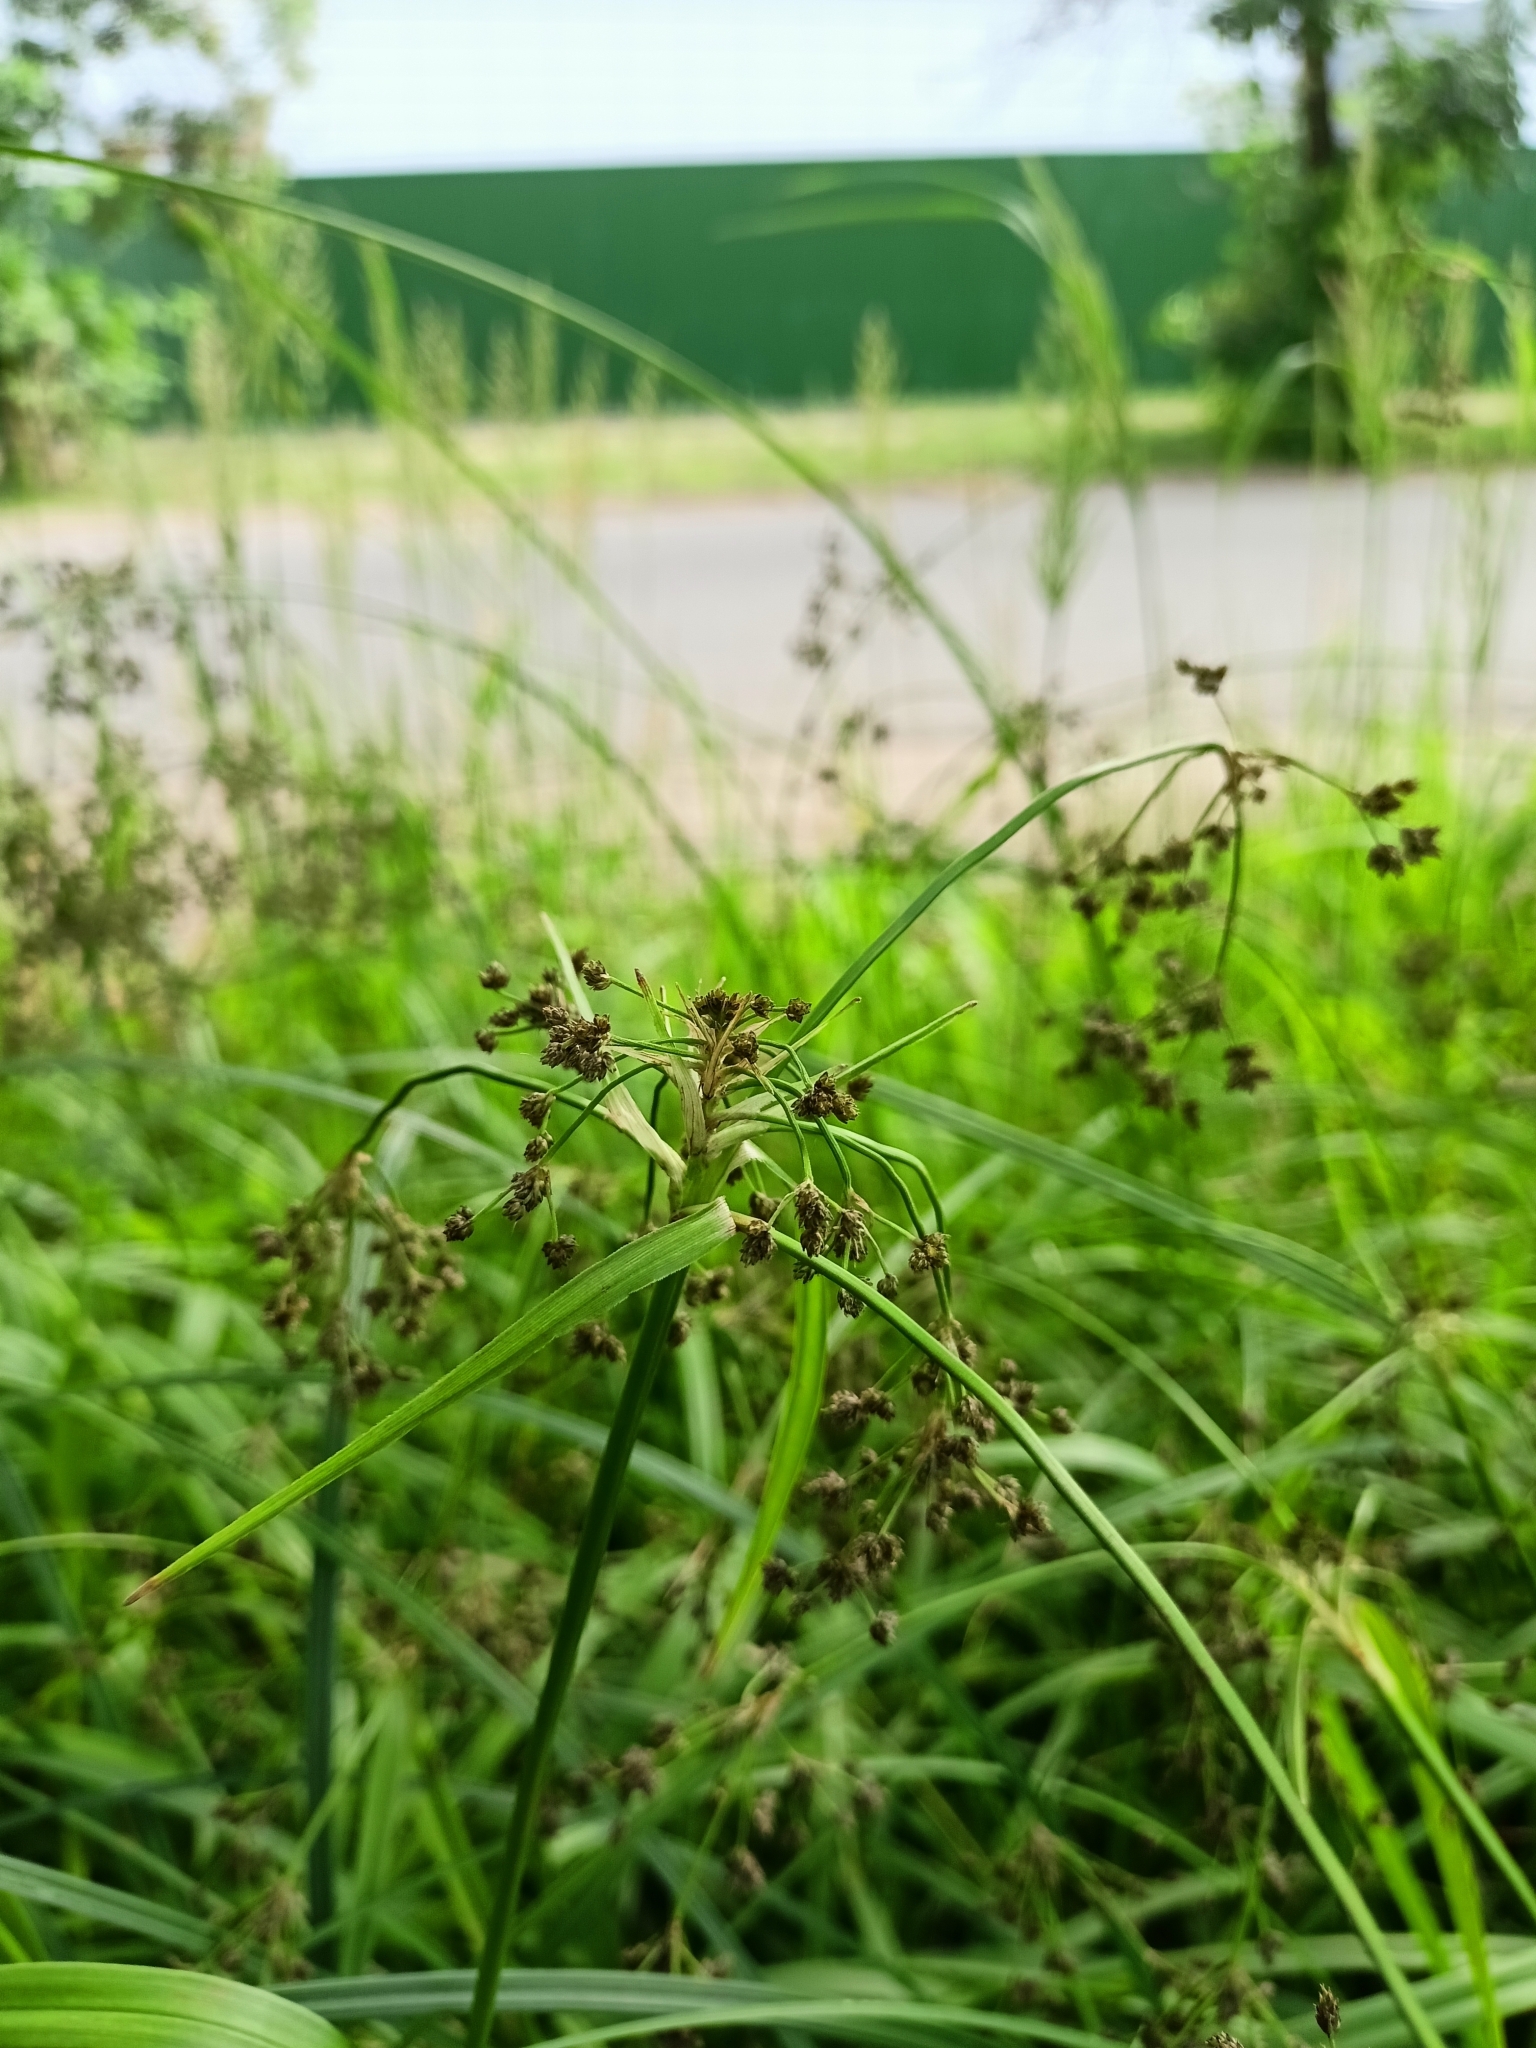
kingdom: Plantae
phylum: Tracheophyta
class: Liliopsida
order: Poales
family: Cyperaceae
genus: Scirpus
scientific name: Scirpus sylvaticus
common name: Wood club-rush
